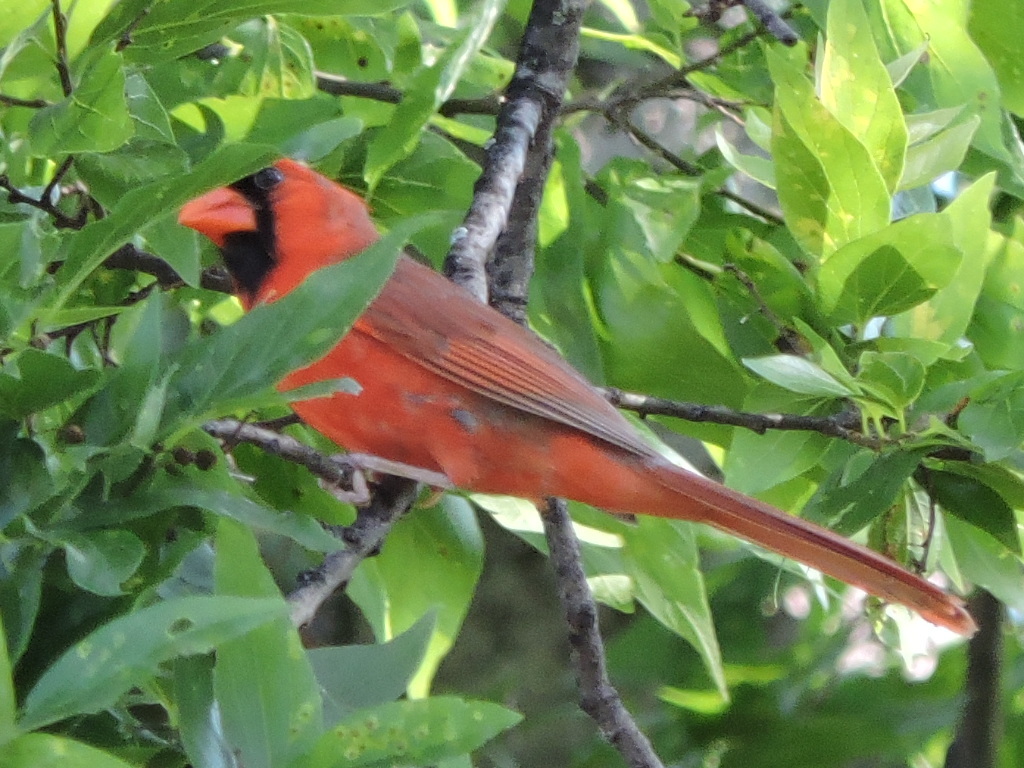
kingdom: Animalia
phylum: Chordata
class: Aves
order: Passeriformes
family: Cardinalidae
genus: Cardinalis
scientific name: Cardinalis cardinalis
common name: Northern cardinal
